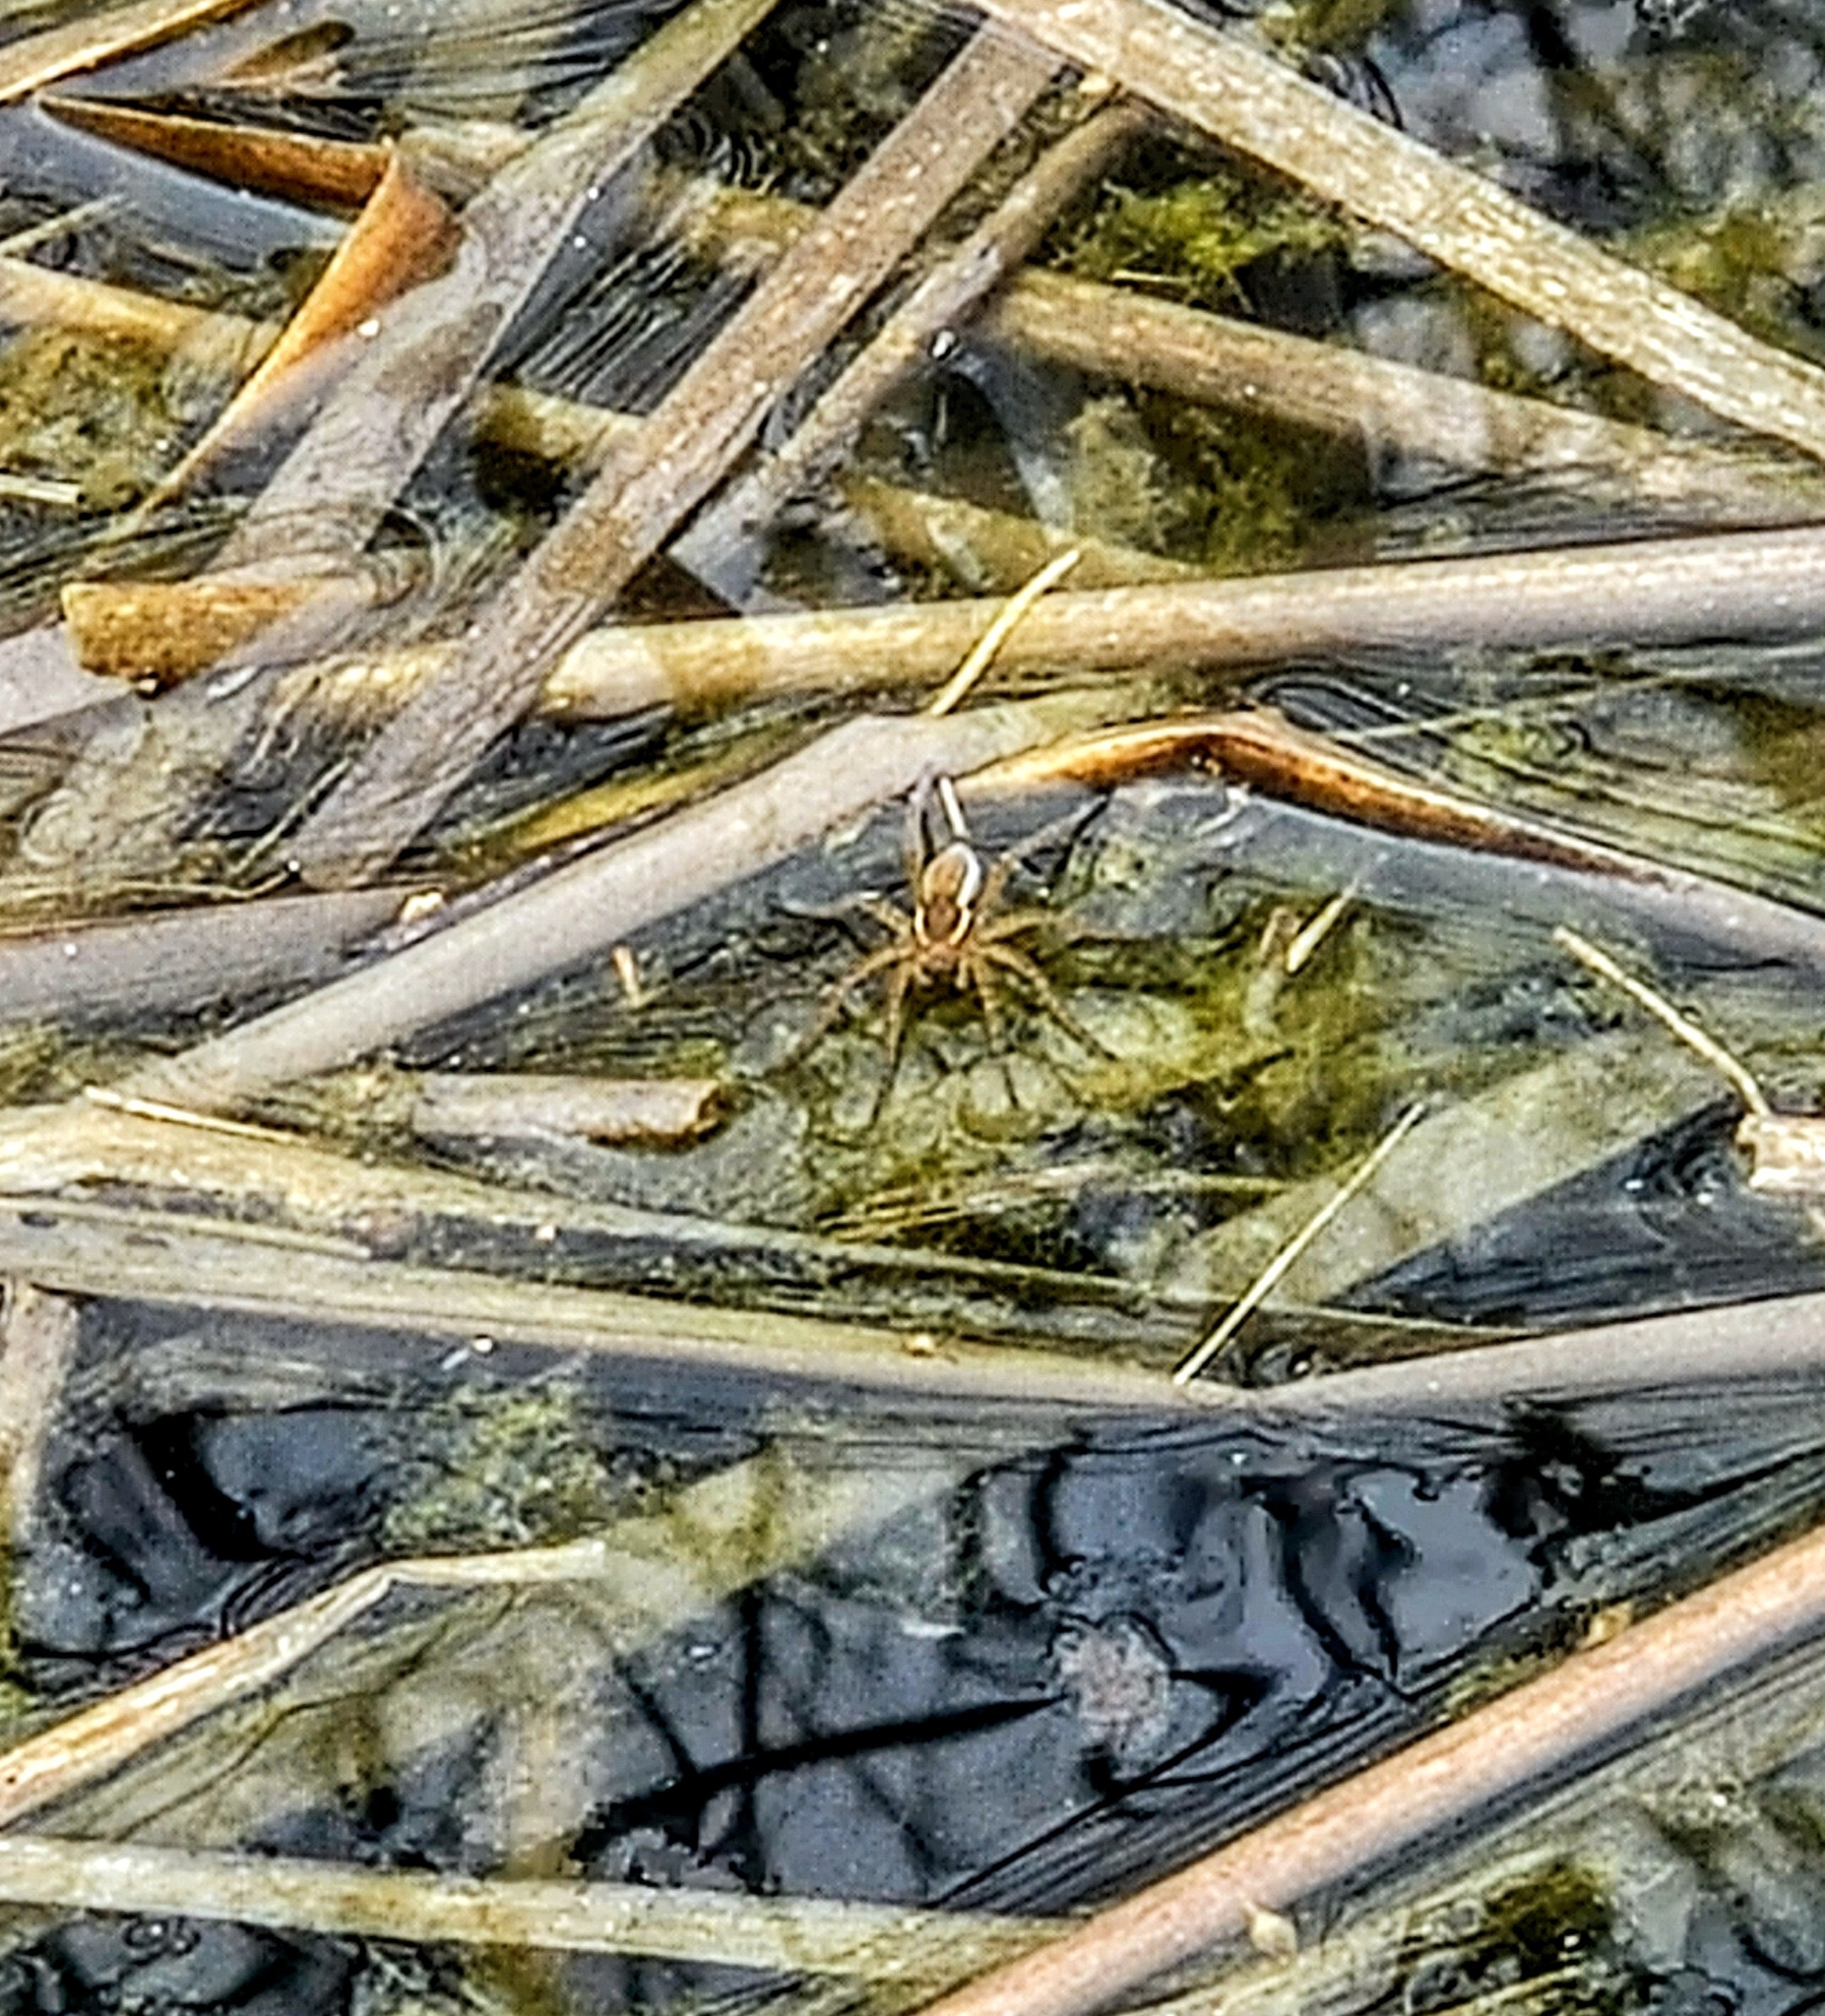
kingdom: Animalia
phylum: Arthropoda
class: Arachnida
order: Araneae
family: Pisauridae
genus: Dolomedes
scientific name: Dolomedes triton
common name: Six-spotted fishing spider
